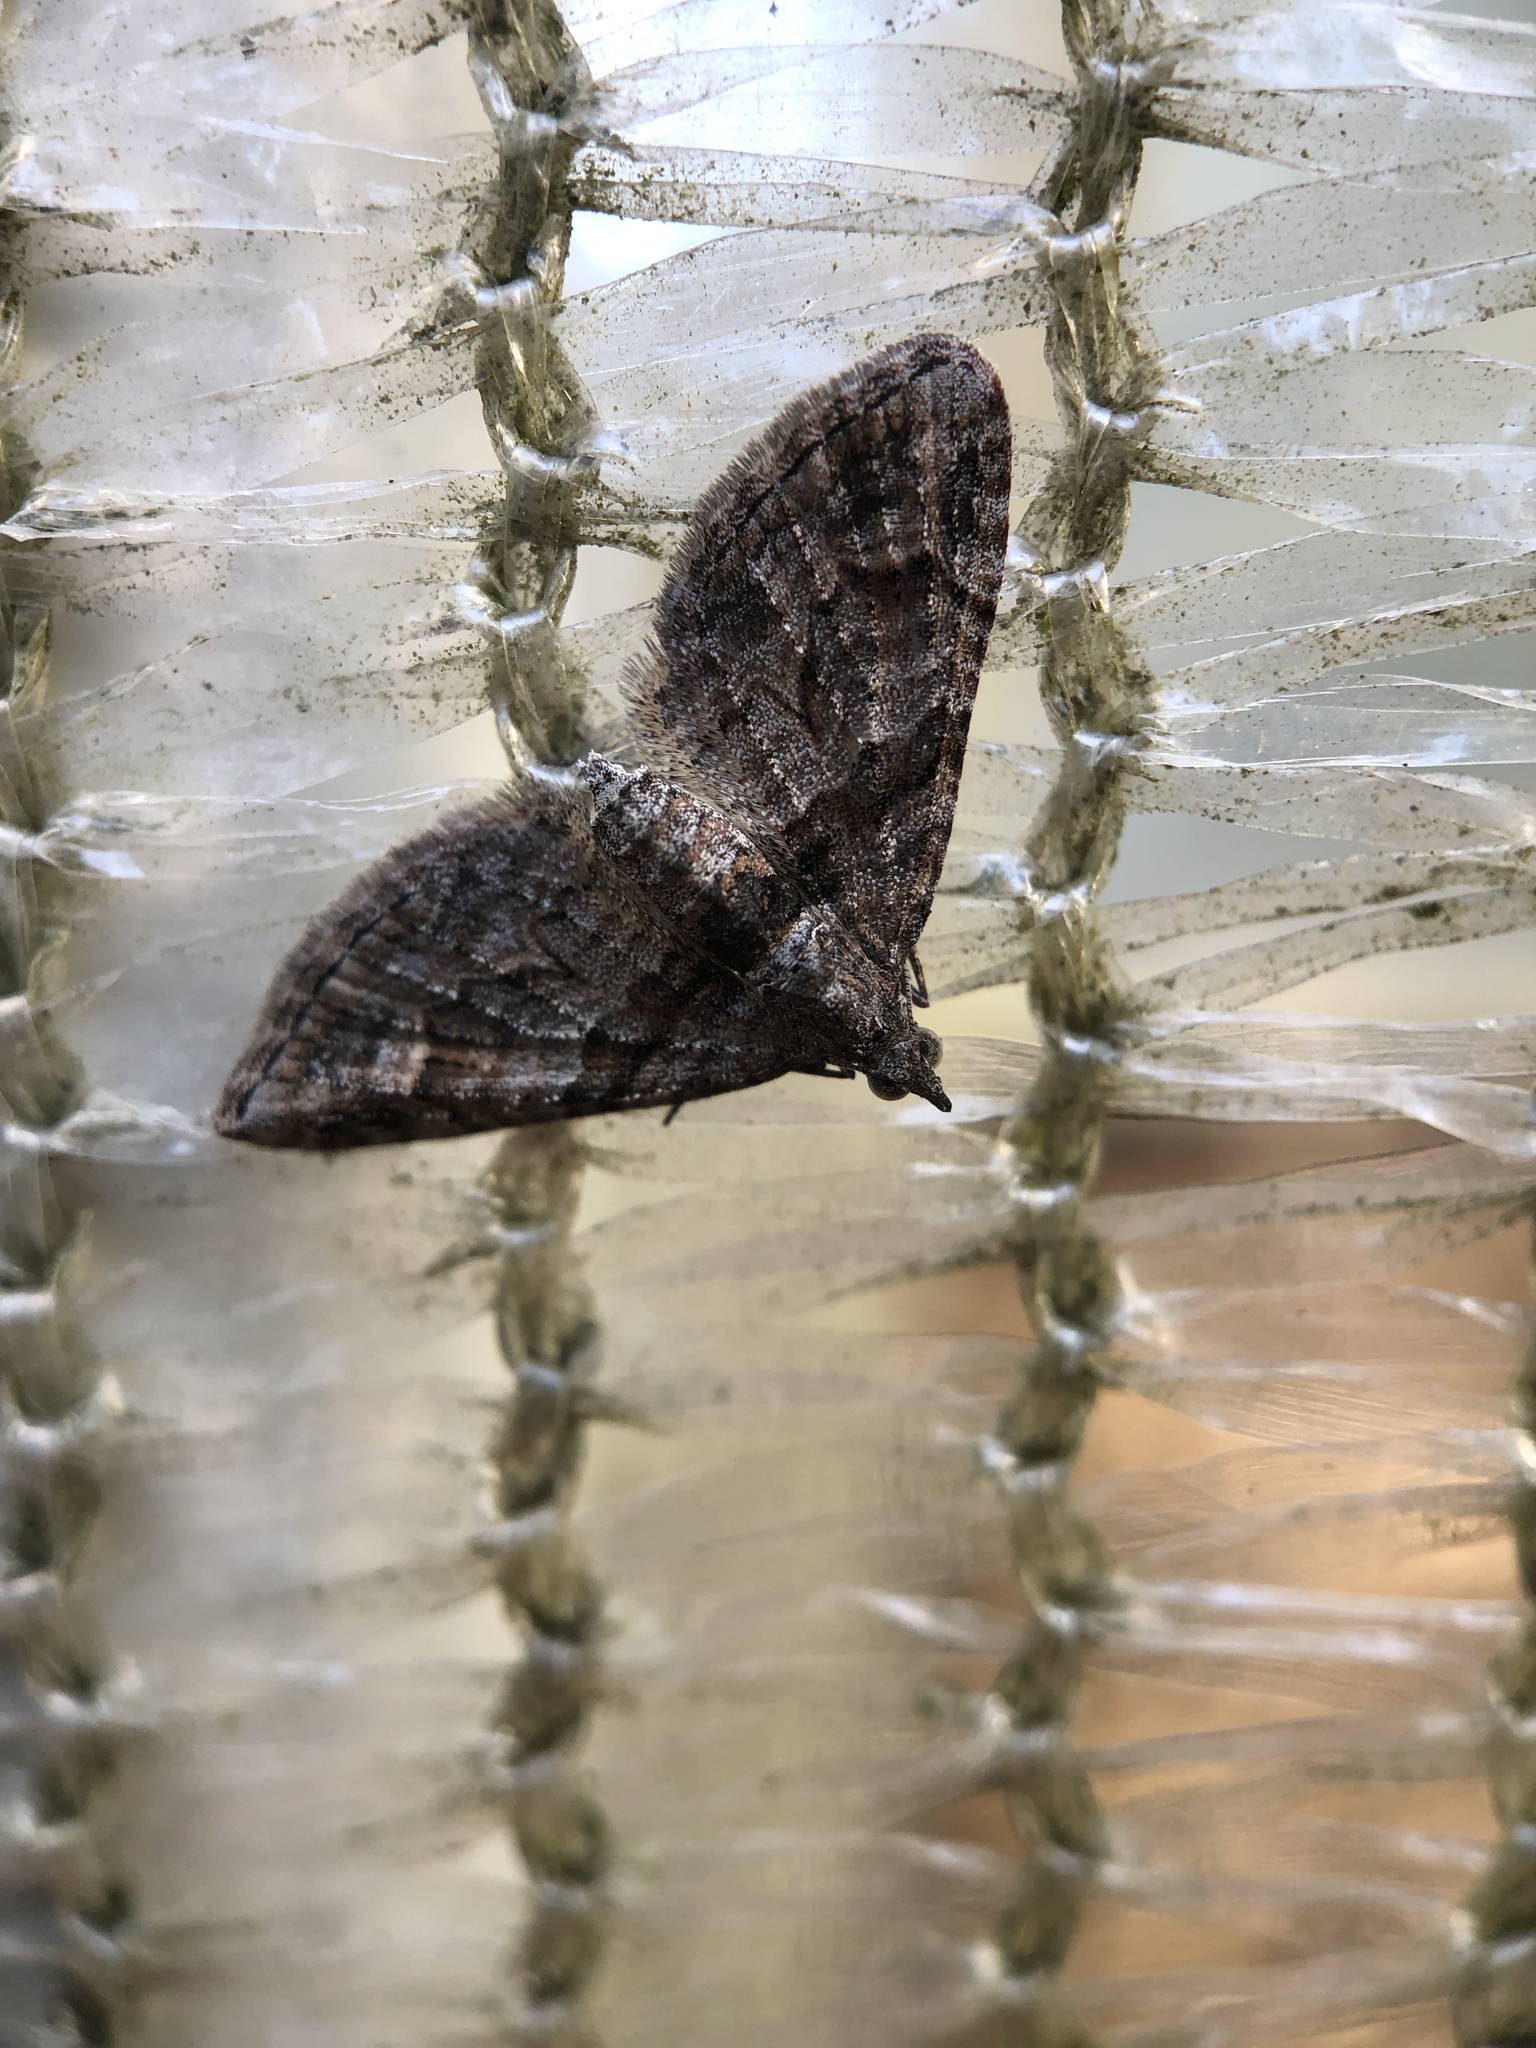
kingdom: Animalia
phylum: Arthropoda
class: Insecta
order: Lepidoptera
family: Geometridae
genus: Phrissogonus
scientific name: Phrissogonus laticostata
